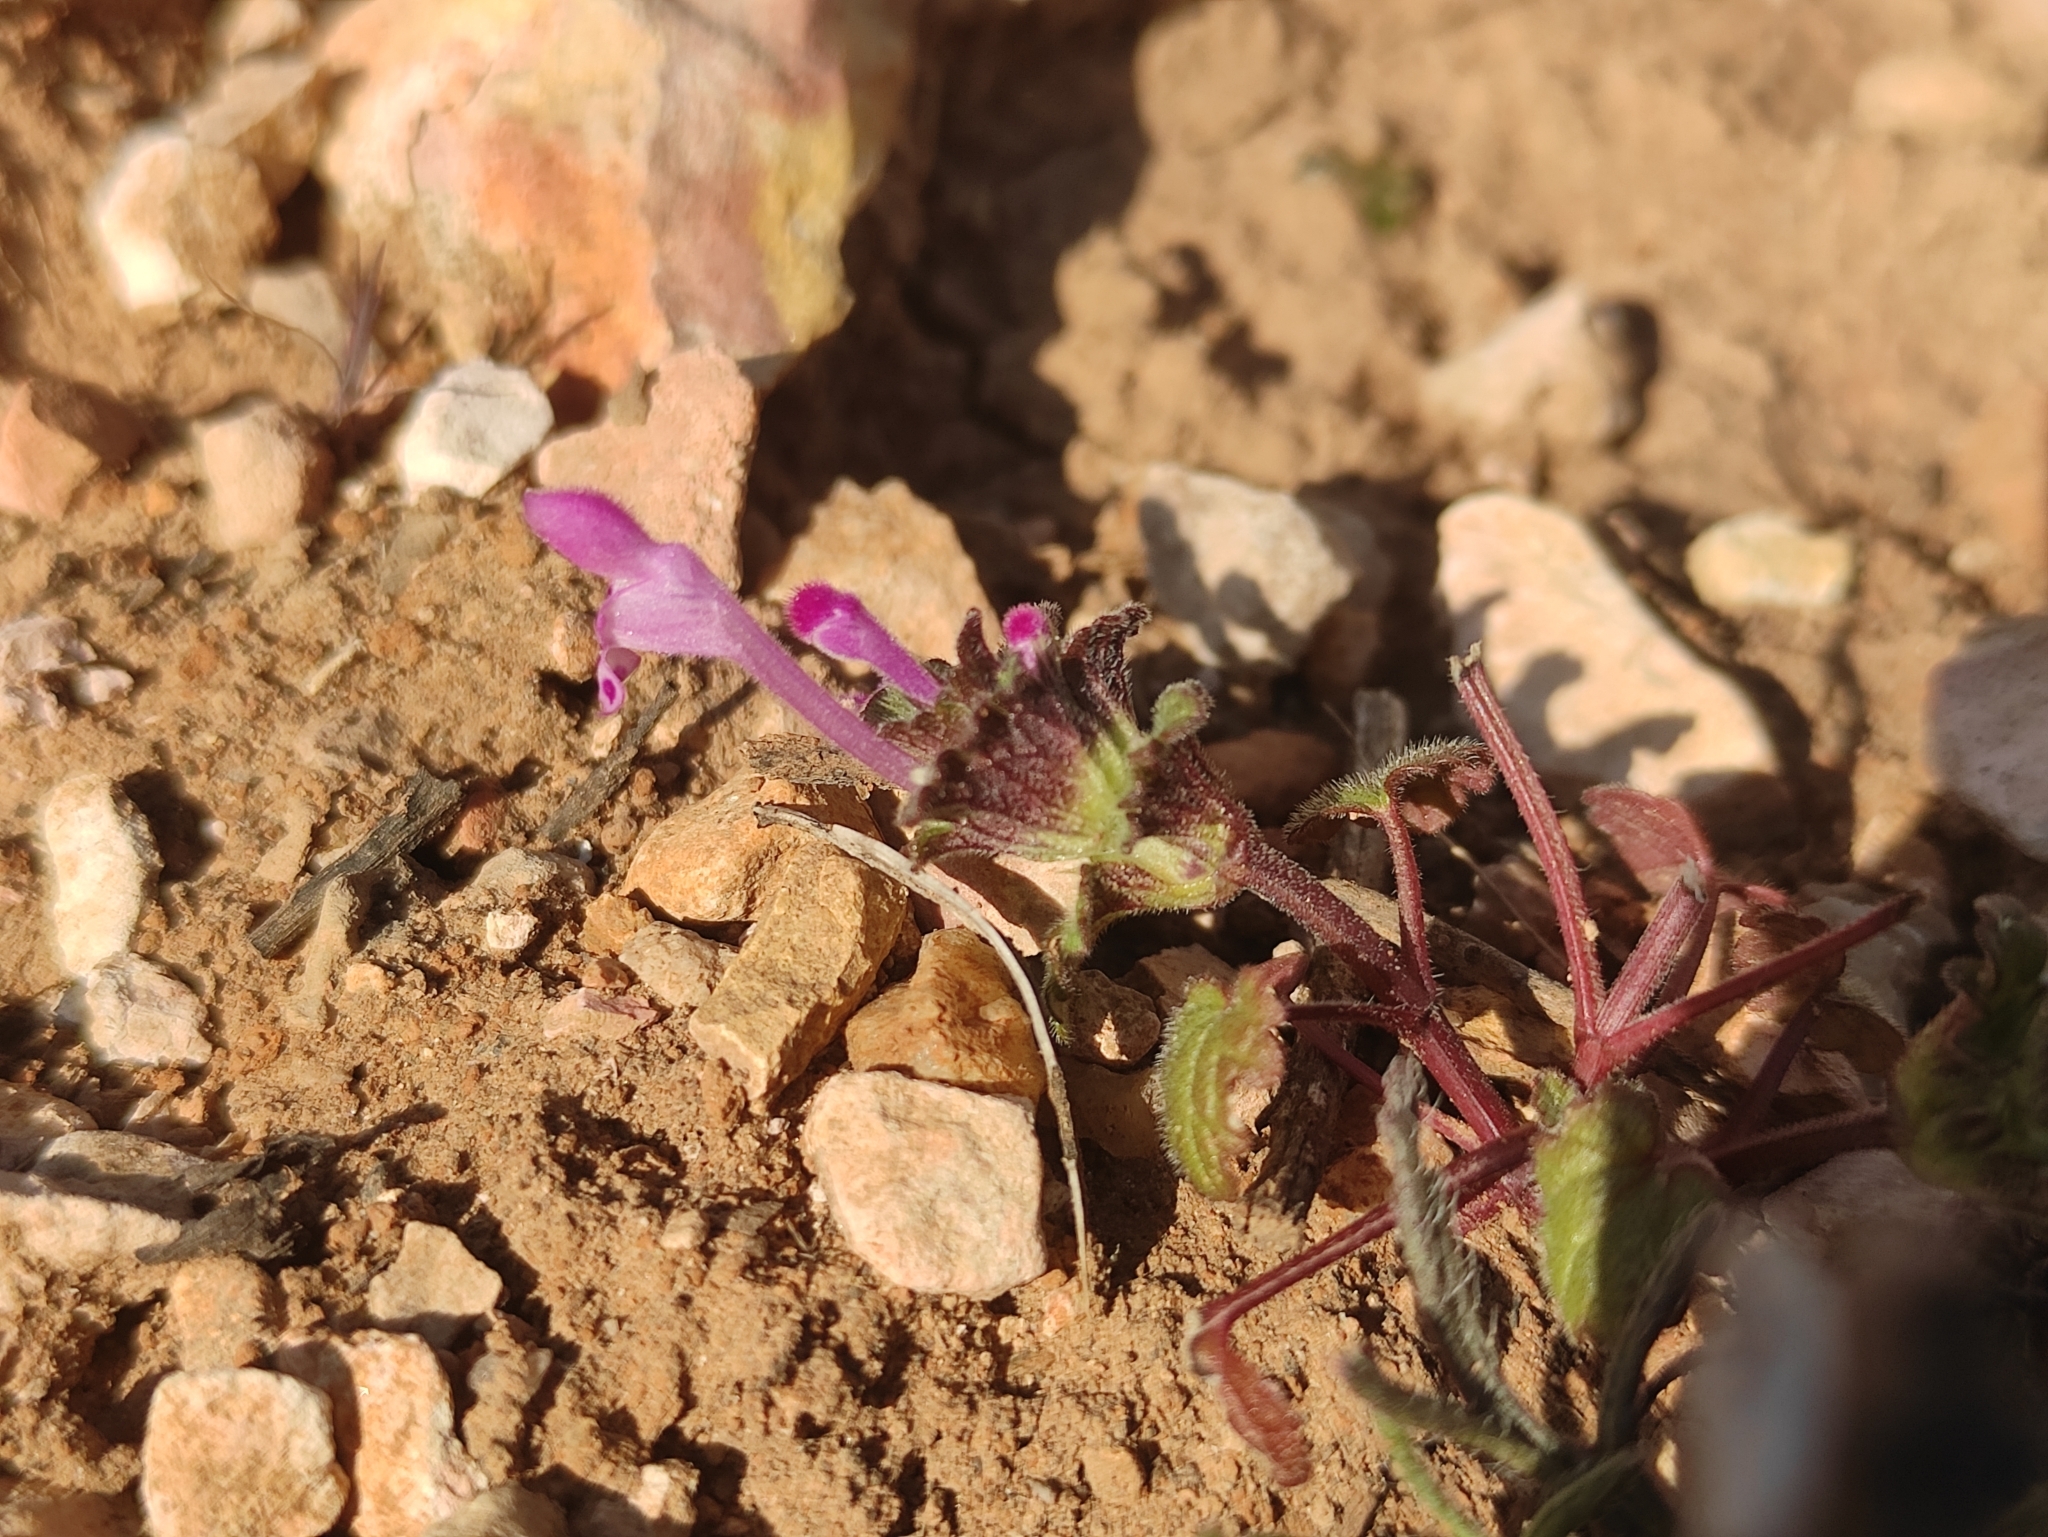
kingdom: Plantae
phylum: Tracheophyta
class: Magnoliopsida
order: Lamiales
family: Lamiaceae
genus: Lamium
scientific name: Lamium amplexicaule
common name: Henbit dead-nettle
